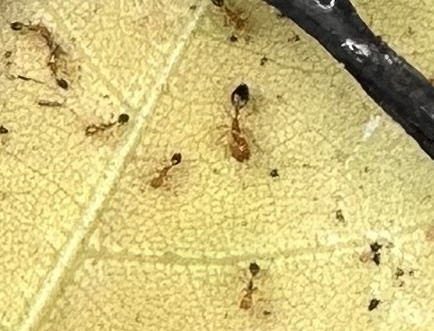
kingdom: Animalia
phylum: Arthropoda
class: Insecta
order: Hymenoptera
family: Formicidae
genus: Monomorium
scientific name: Monomorium destructor
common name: Destructive trailing ant
